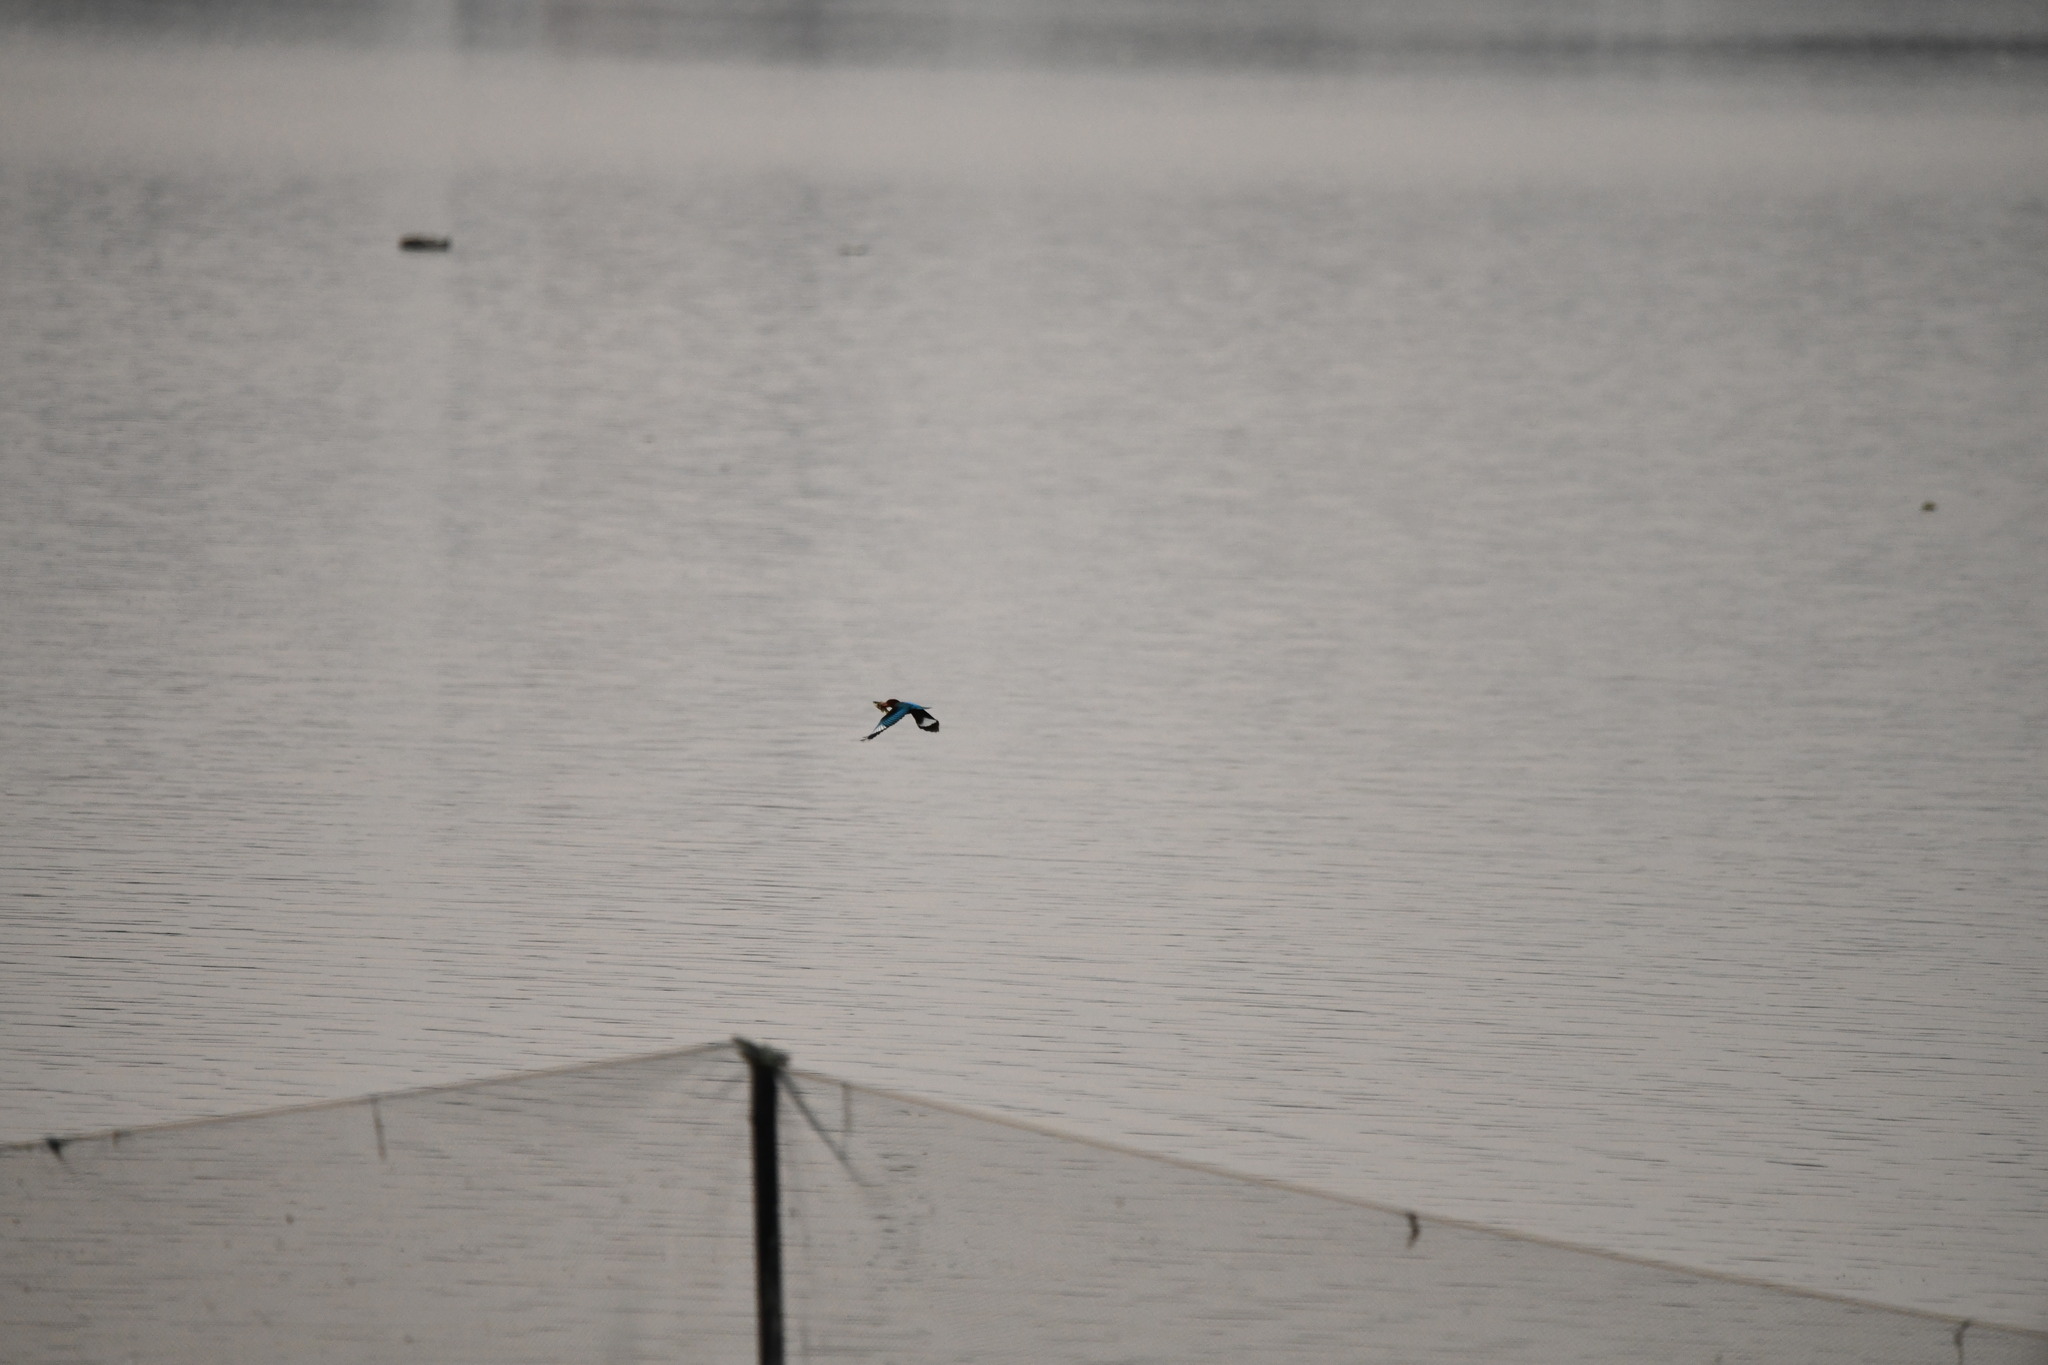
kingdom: Animalia
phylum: Chordata
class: Aves
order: Coraciiformes
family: Alcedinidae
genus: Halcyon
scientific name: Halcyon smyrnensis
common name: White-throated kingfisher
